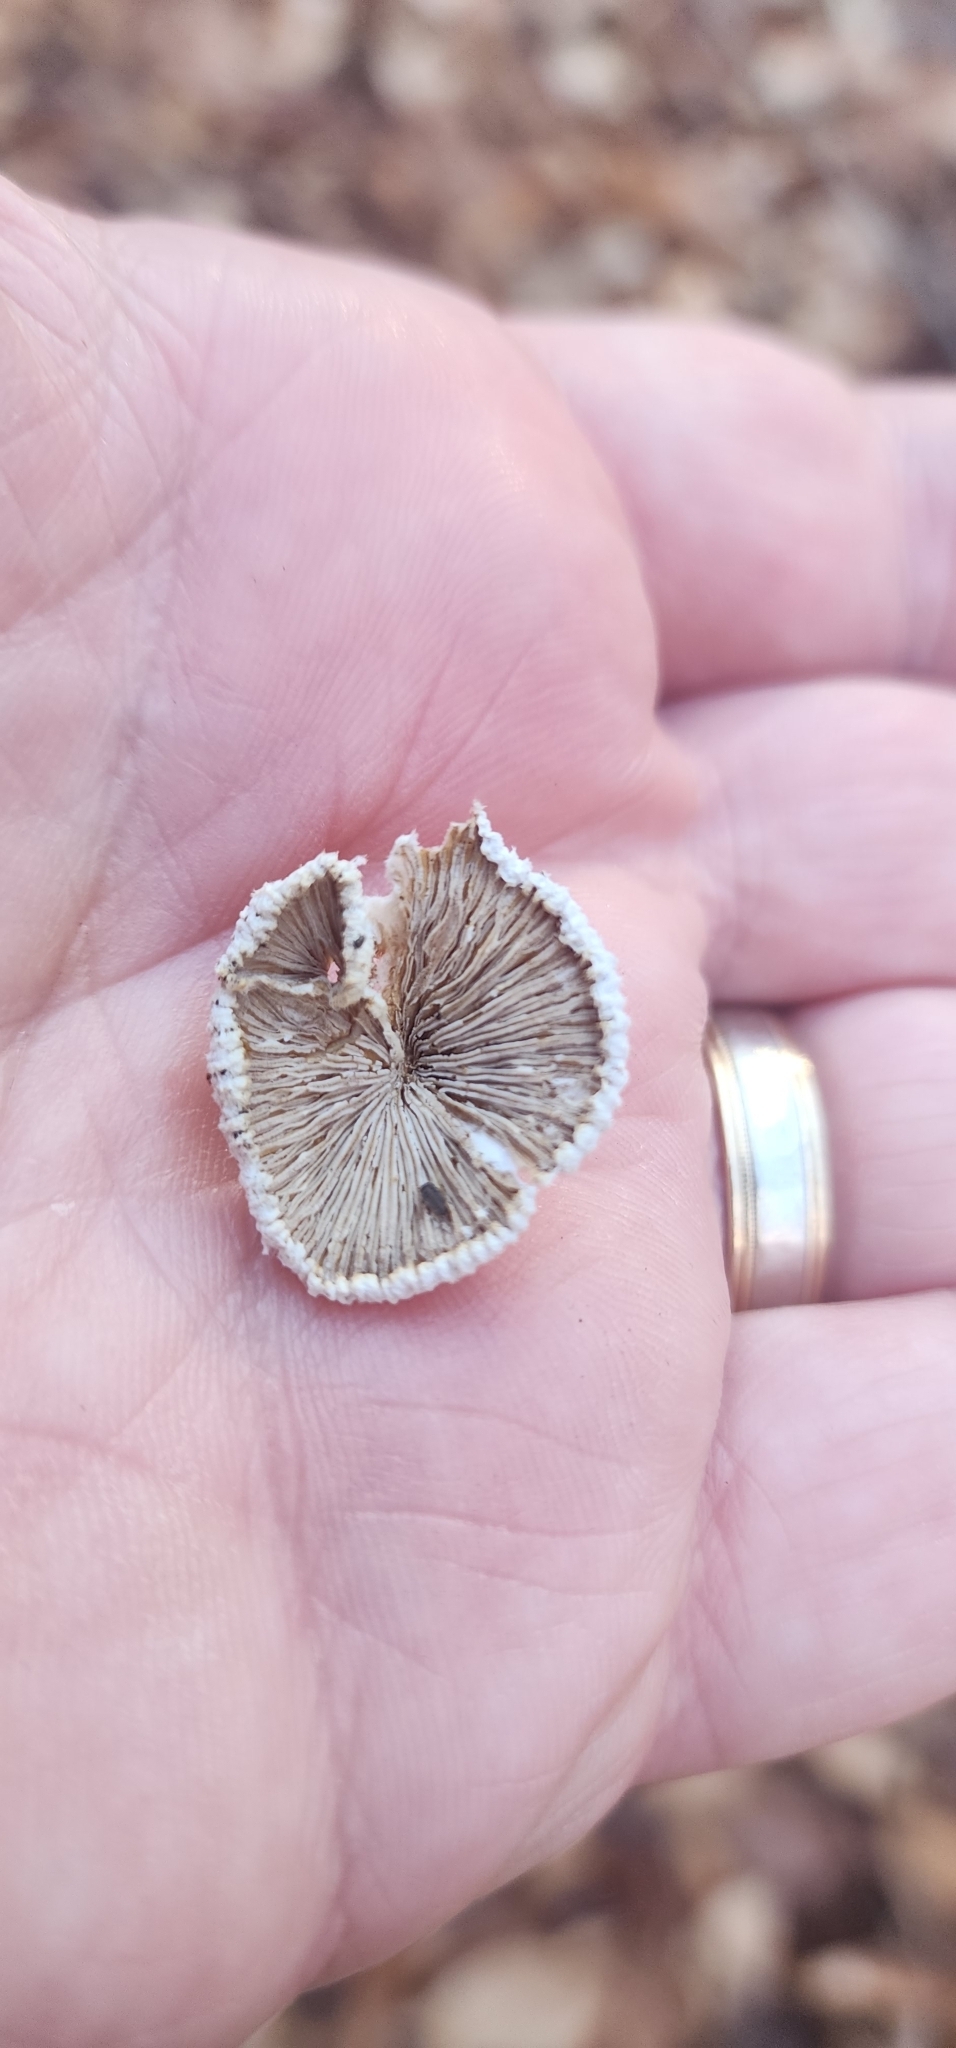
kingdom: Fungi
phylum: Basidiomycota
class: Agaricomycetes
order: Agaricales
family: Schizophyllaceae
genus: Schizophyllum
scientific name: Schizophyllum commune
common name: Common porecrust
